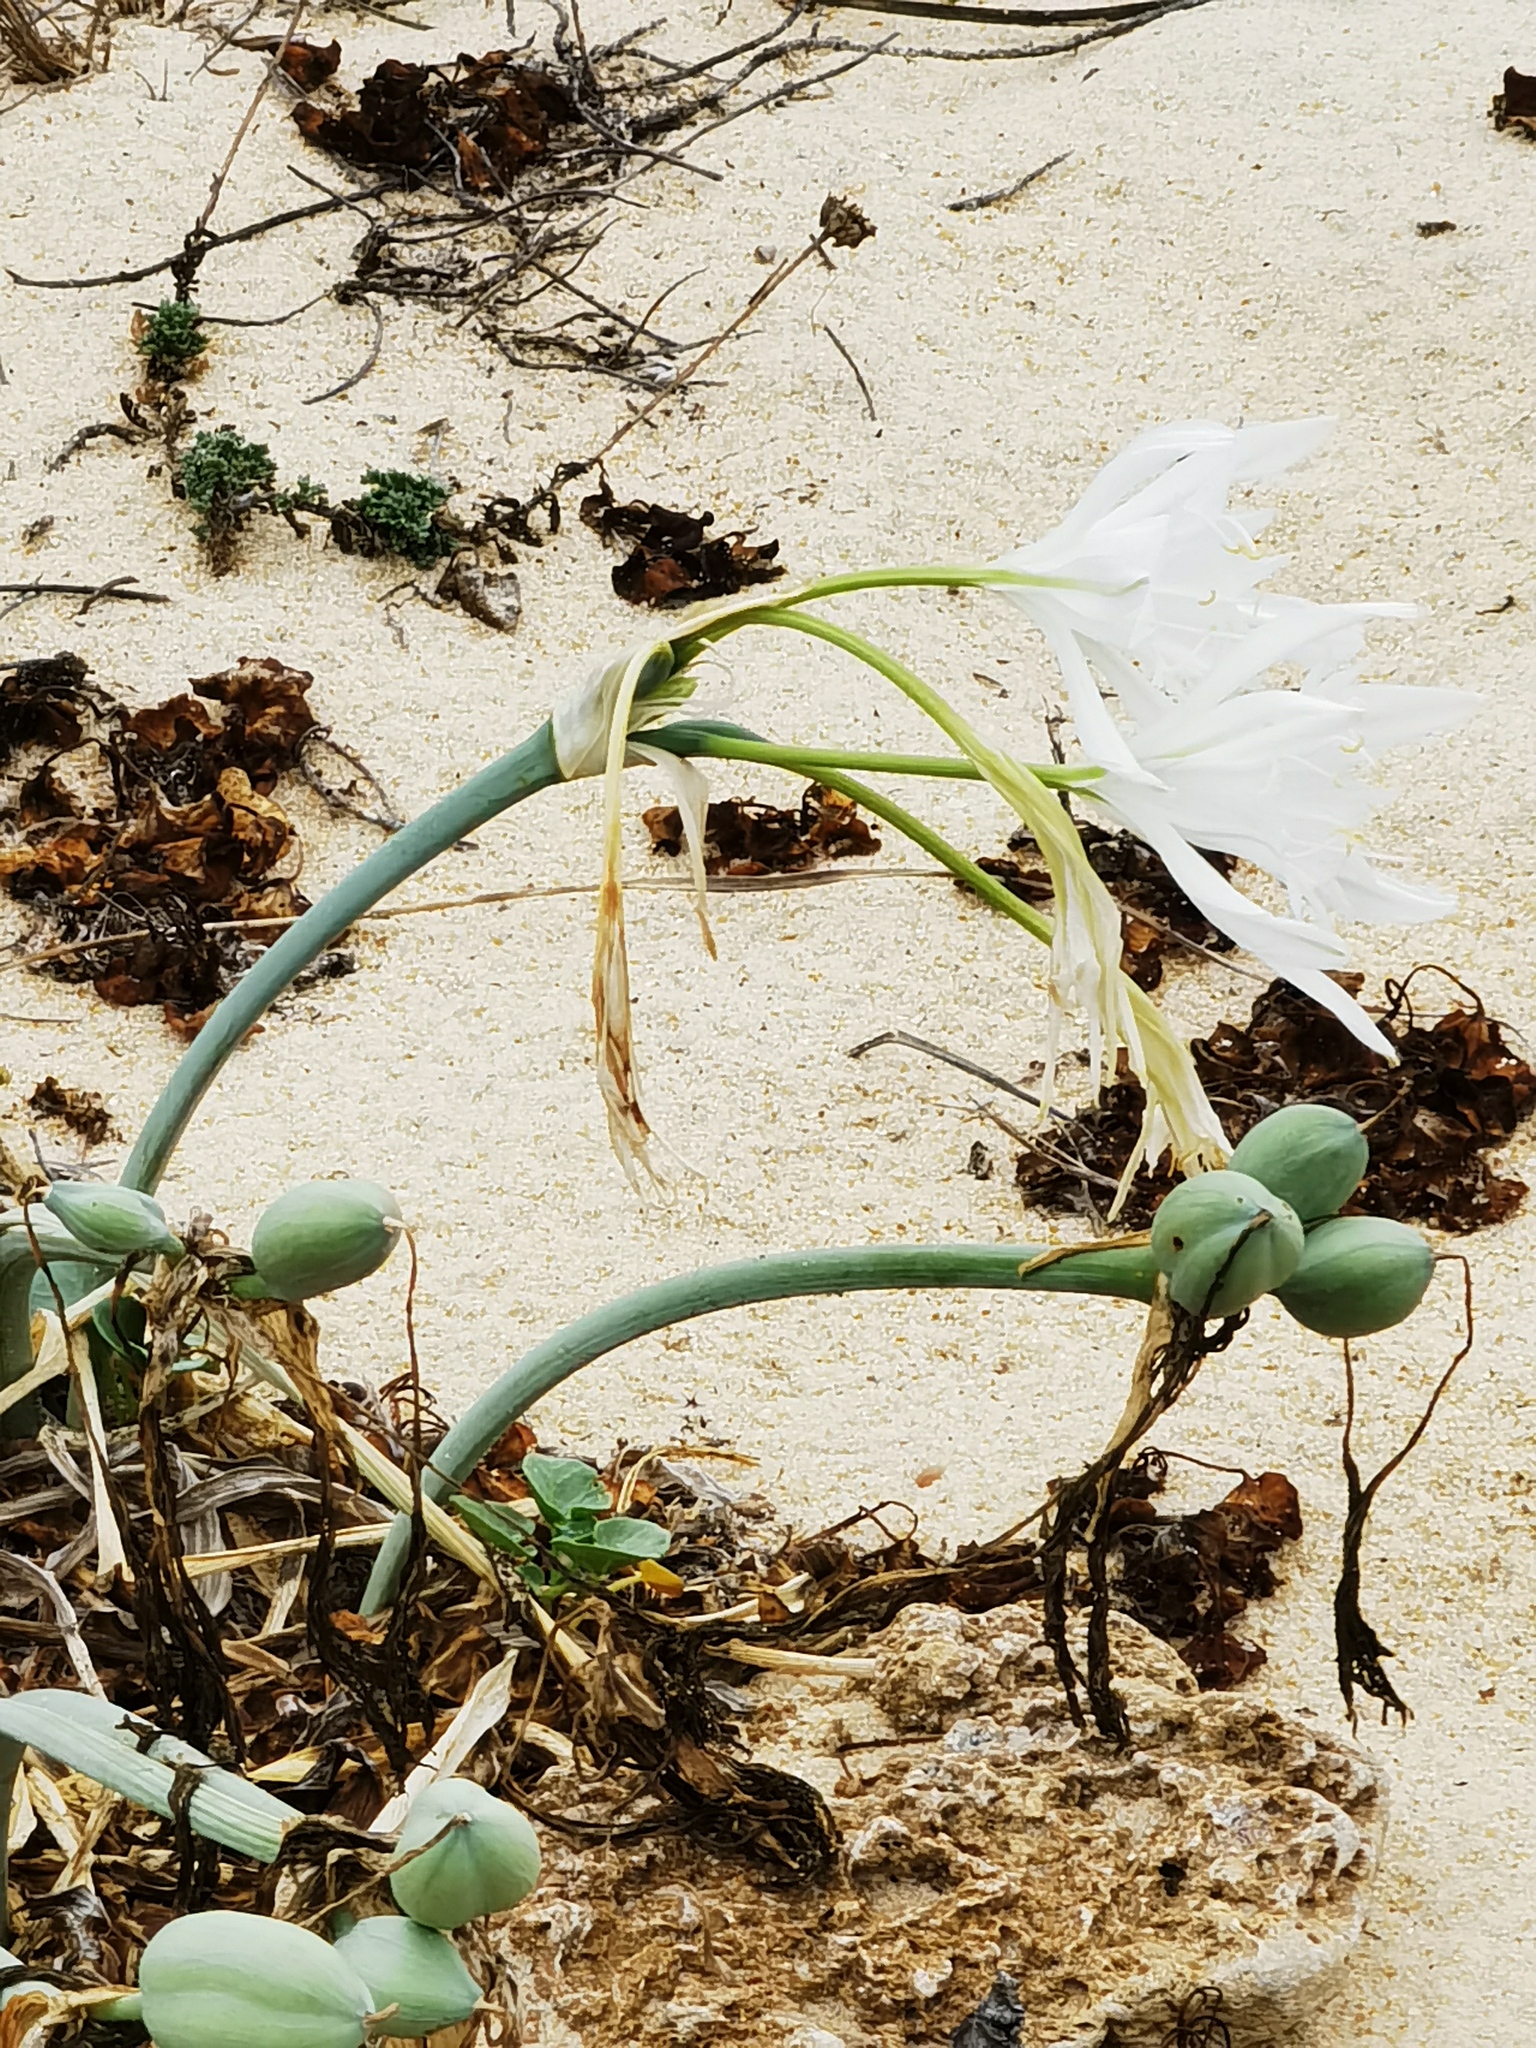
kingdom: Plantae
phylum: Tracheophyta
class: Liliopsida
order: Asparagales
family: Amaryllidaceae
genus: Pancratium
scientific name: Pancratium maritimum
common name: Sea-daffodil
